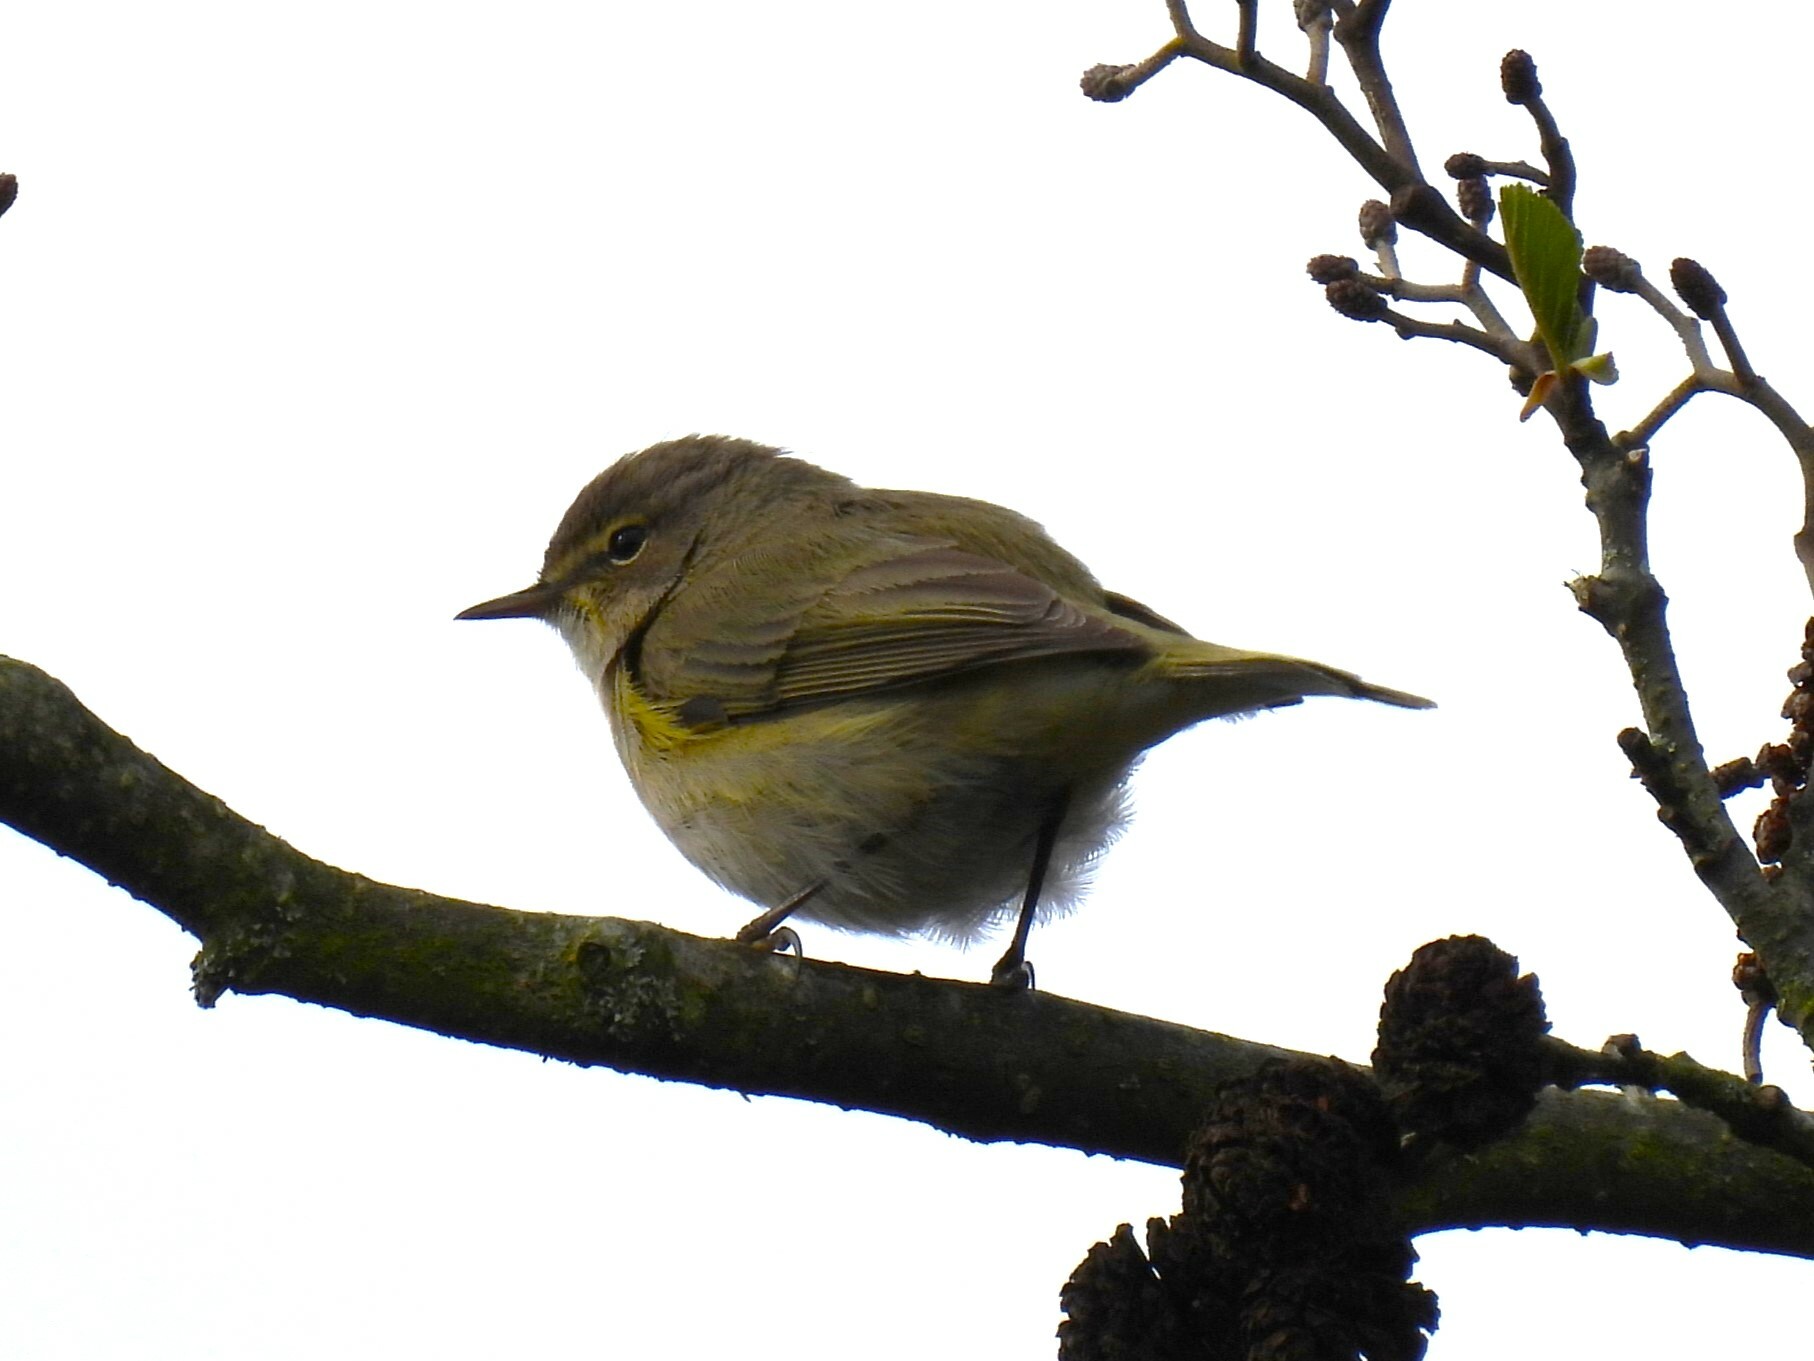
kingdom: Animalia
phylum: Chordata
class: Aves
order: Passeriformes
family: Phylloscopidae
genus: Phylloscopus
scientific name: Phylloscopus collybita
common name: Common chiffchaff
